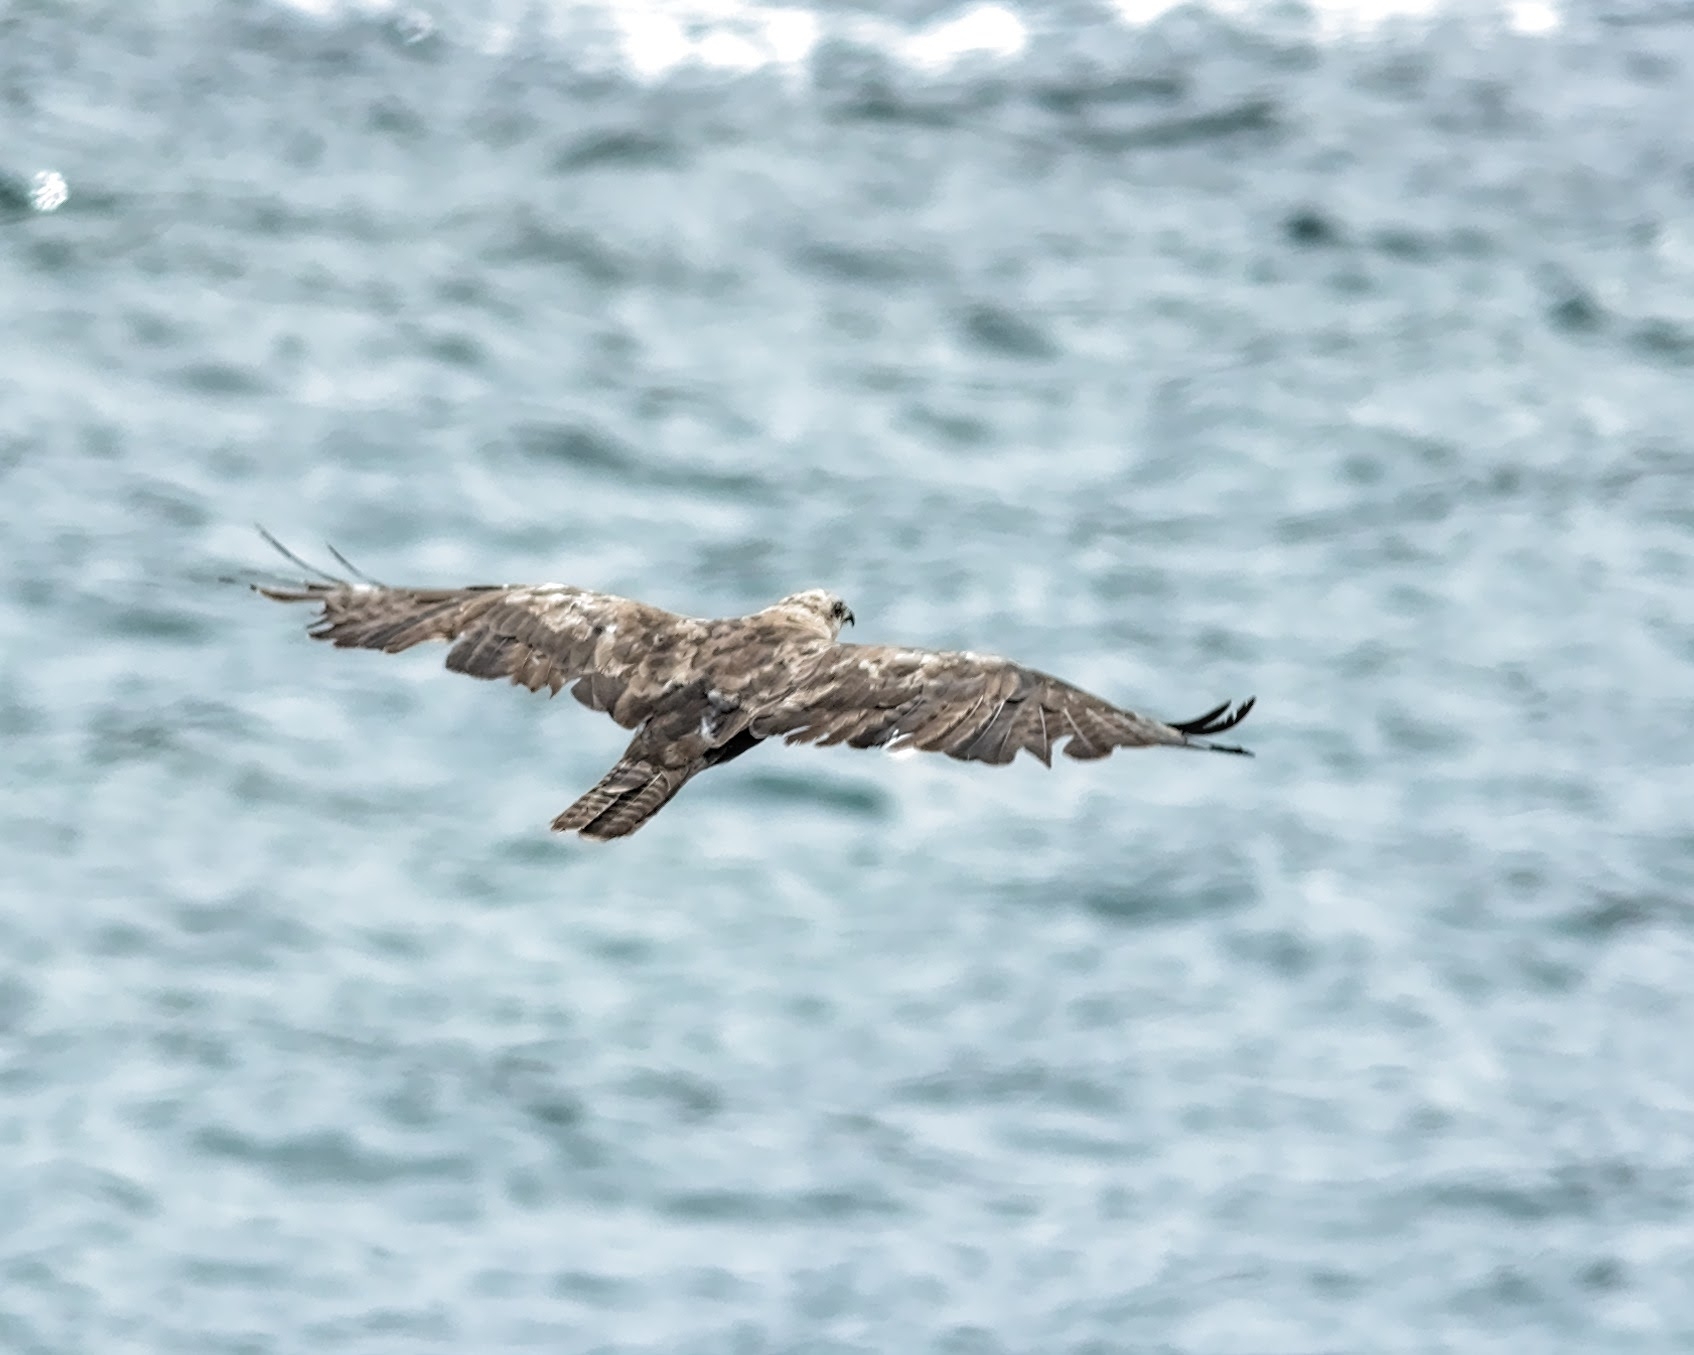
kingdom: Animalia
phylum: Chordata
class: Aves
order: Accipitriformes
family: Accipitridae
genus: Buteo
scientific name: Buteo buteo
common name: Common buzzard
